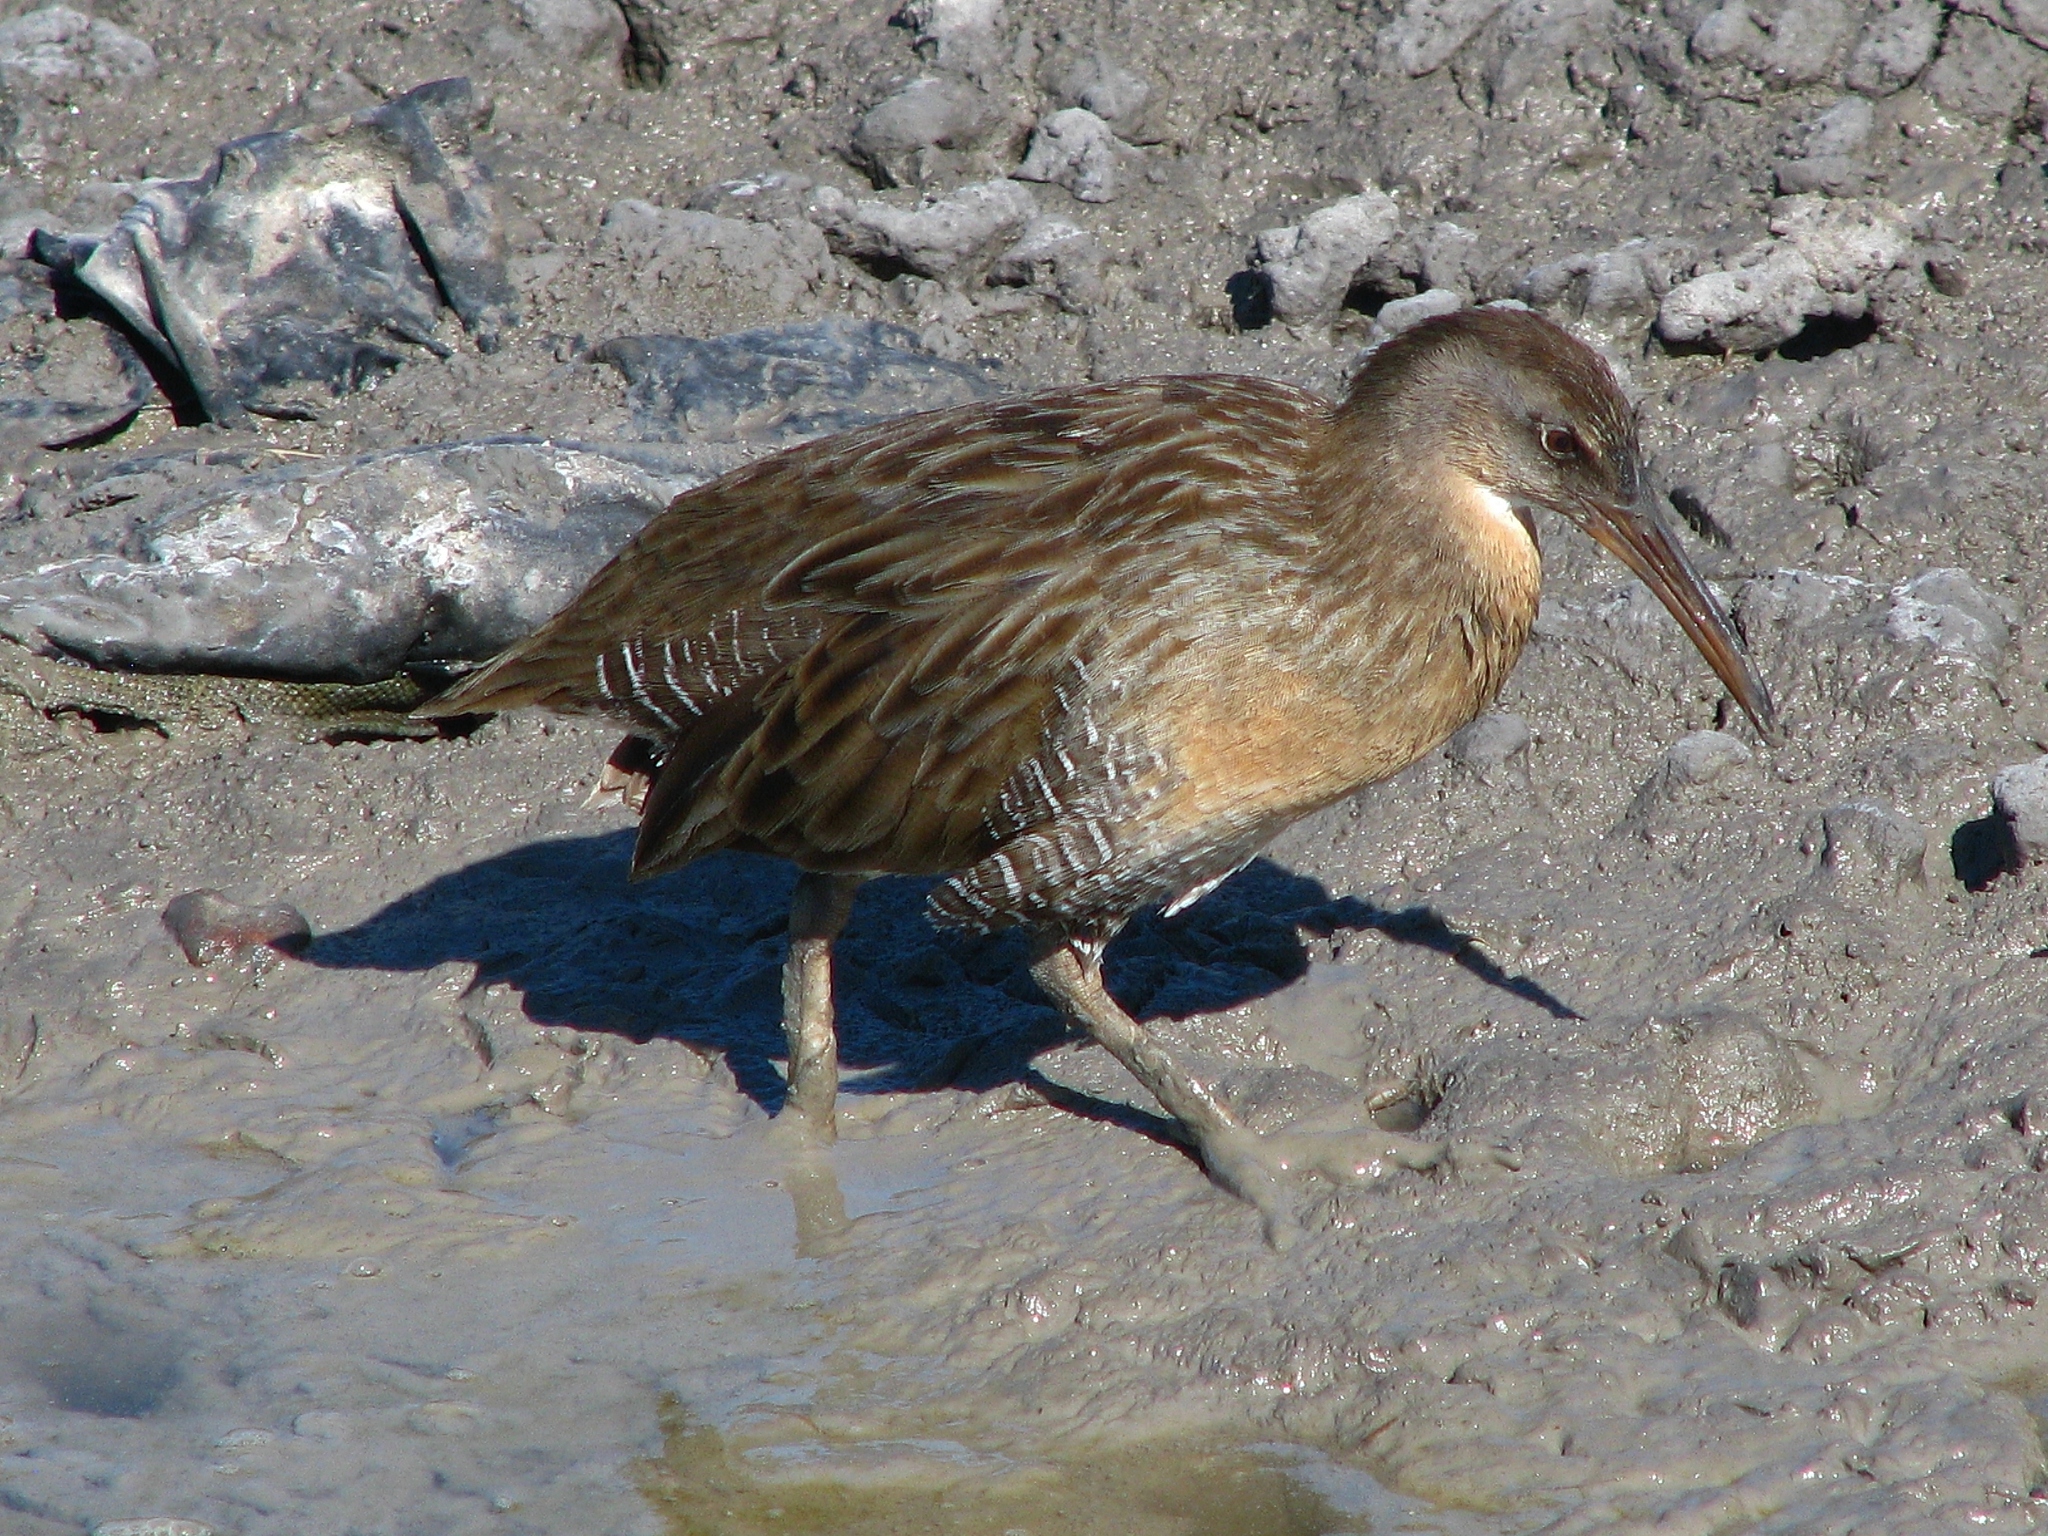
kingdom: Animalia
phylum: Chordata
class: Aves
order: Gruiformes
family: Rallidae
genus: Rallus
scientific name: Rallus crepitans
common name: Clapper rail
